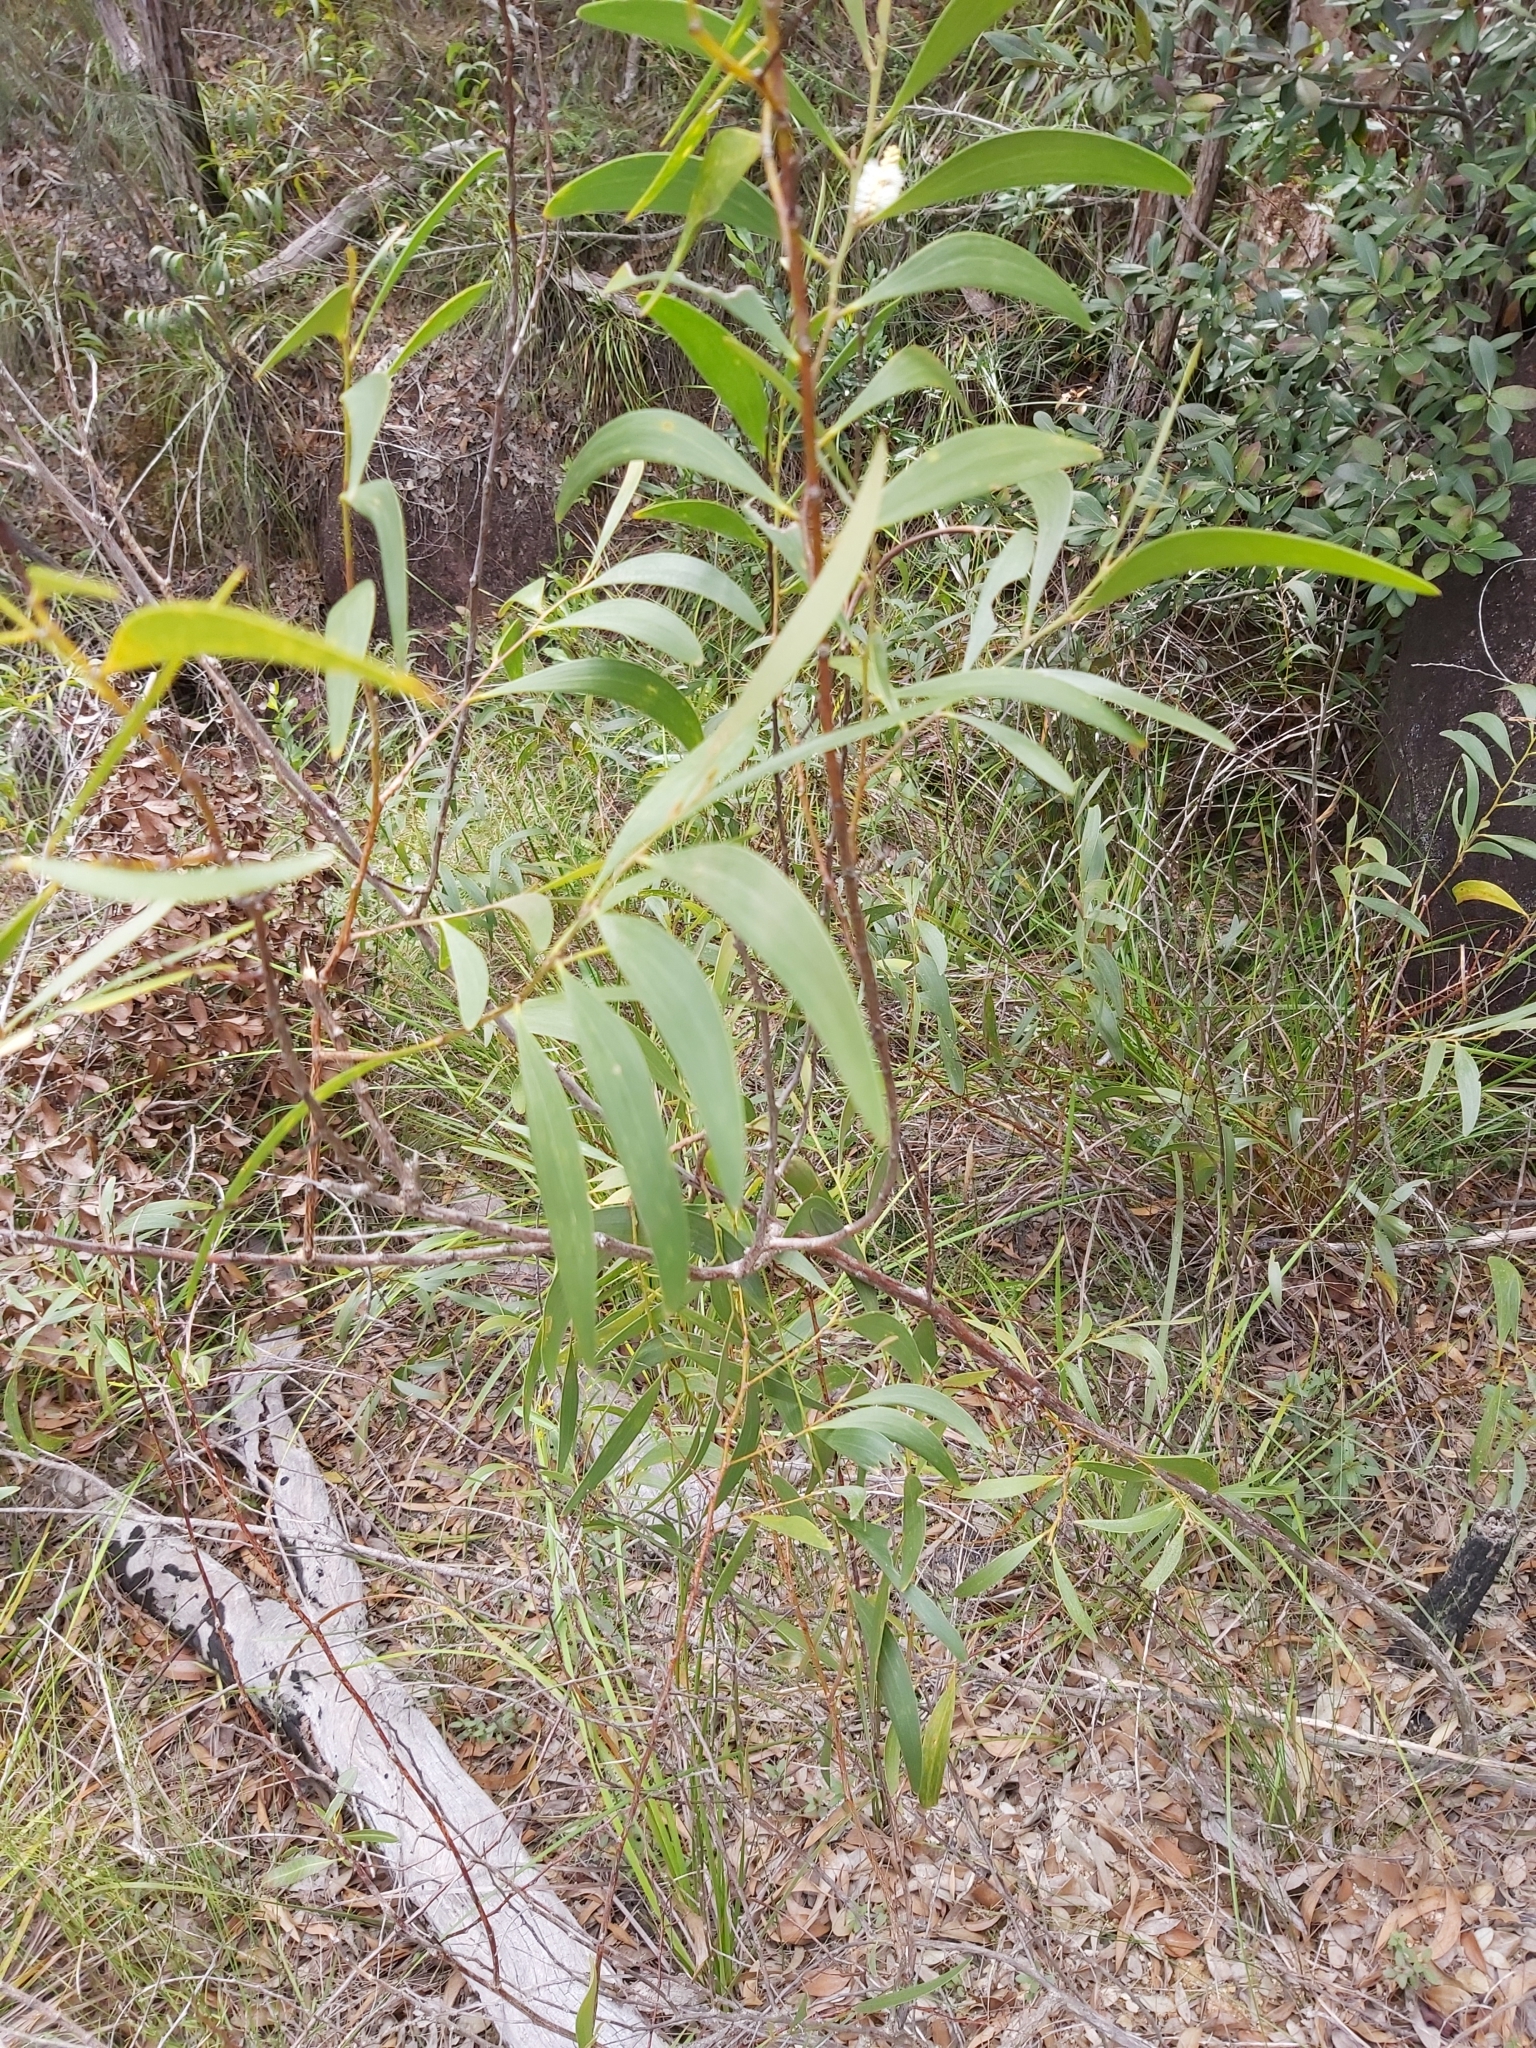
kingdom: Plantae
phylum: Tracheophyta
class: Magnoliopsida
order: Fabales
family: Fabaceae
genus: Acacia
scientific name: Acacia calyculata
